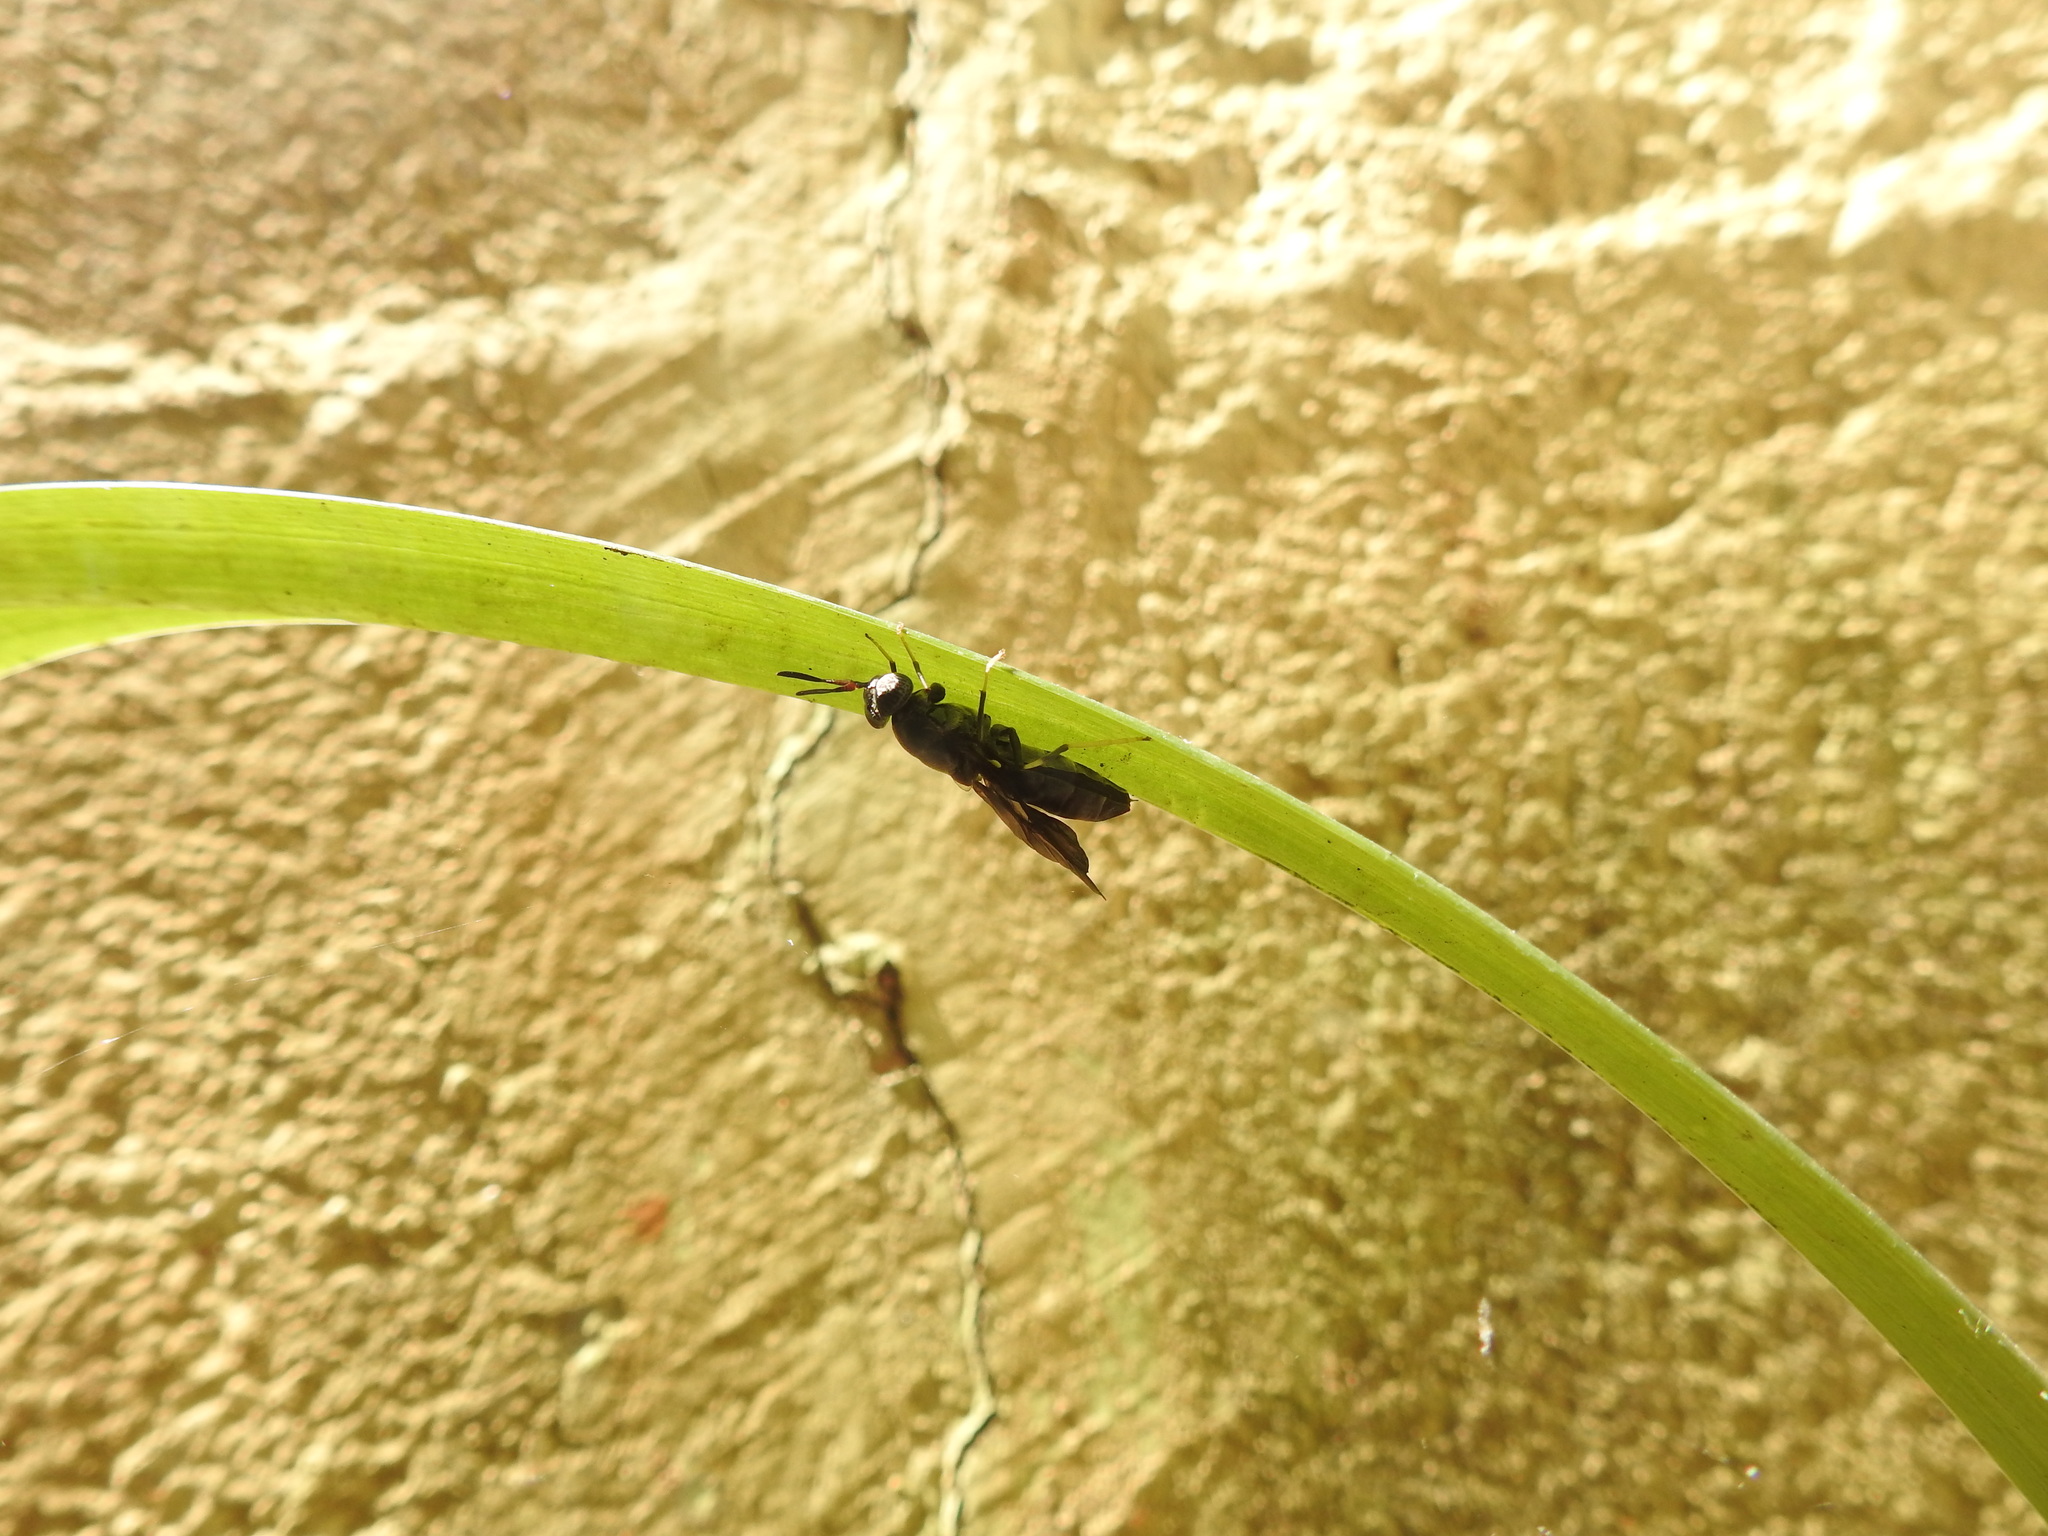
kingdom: Animalia
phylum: Arthropoda
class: Insecta
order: Diptera
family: Stratiomyidae
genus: Hermetia
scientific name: Hermetia illucens
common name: Black soldier fly
